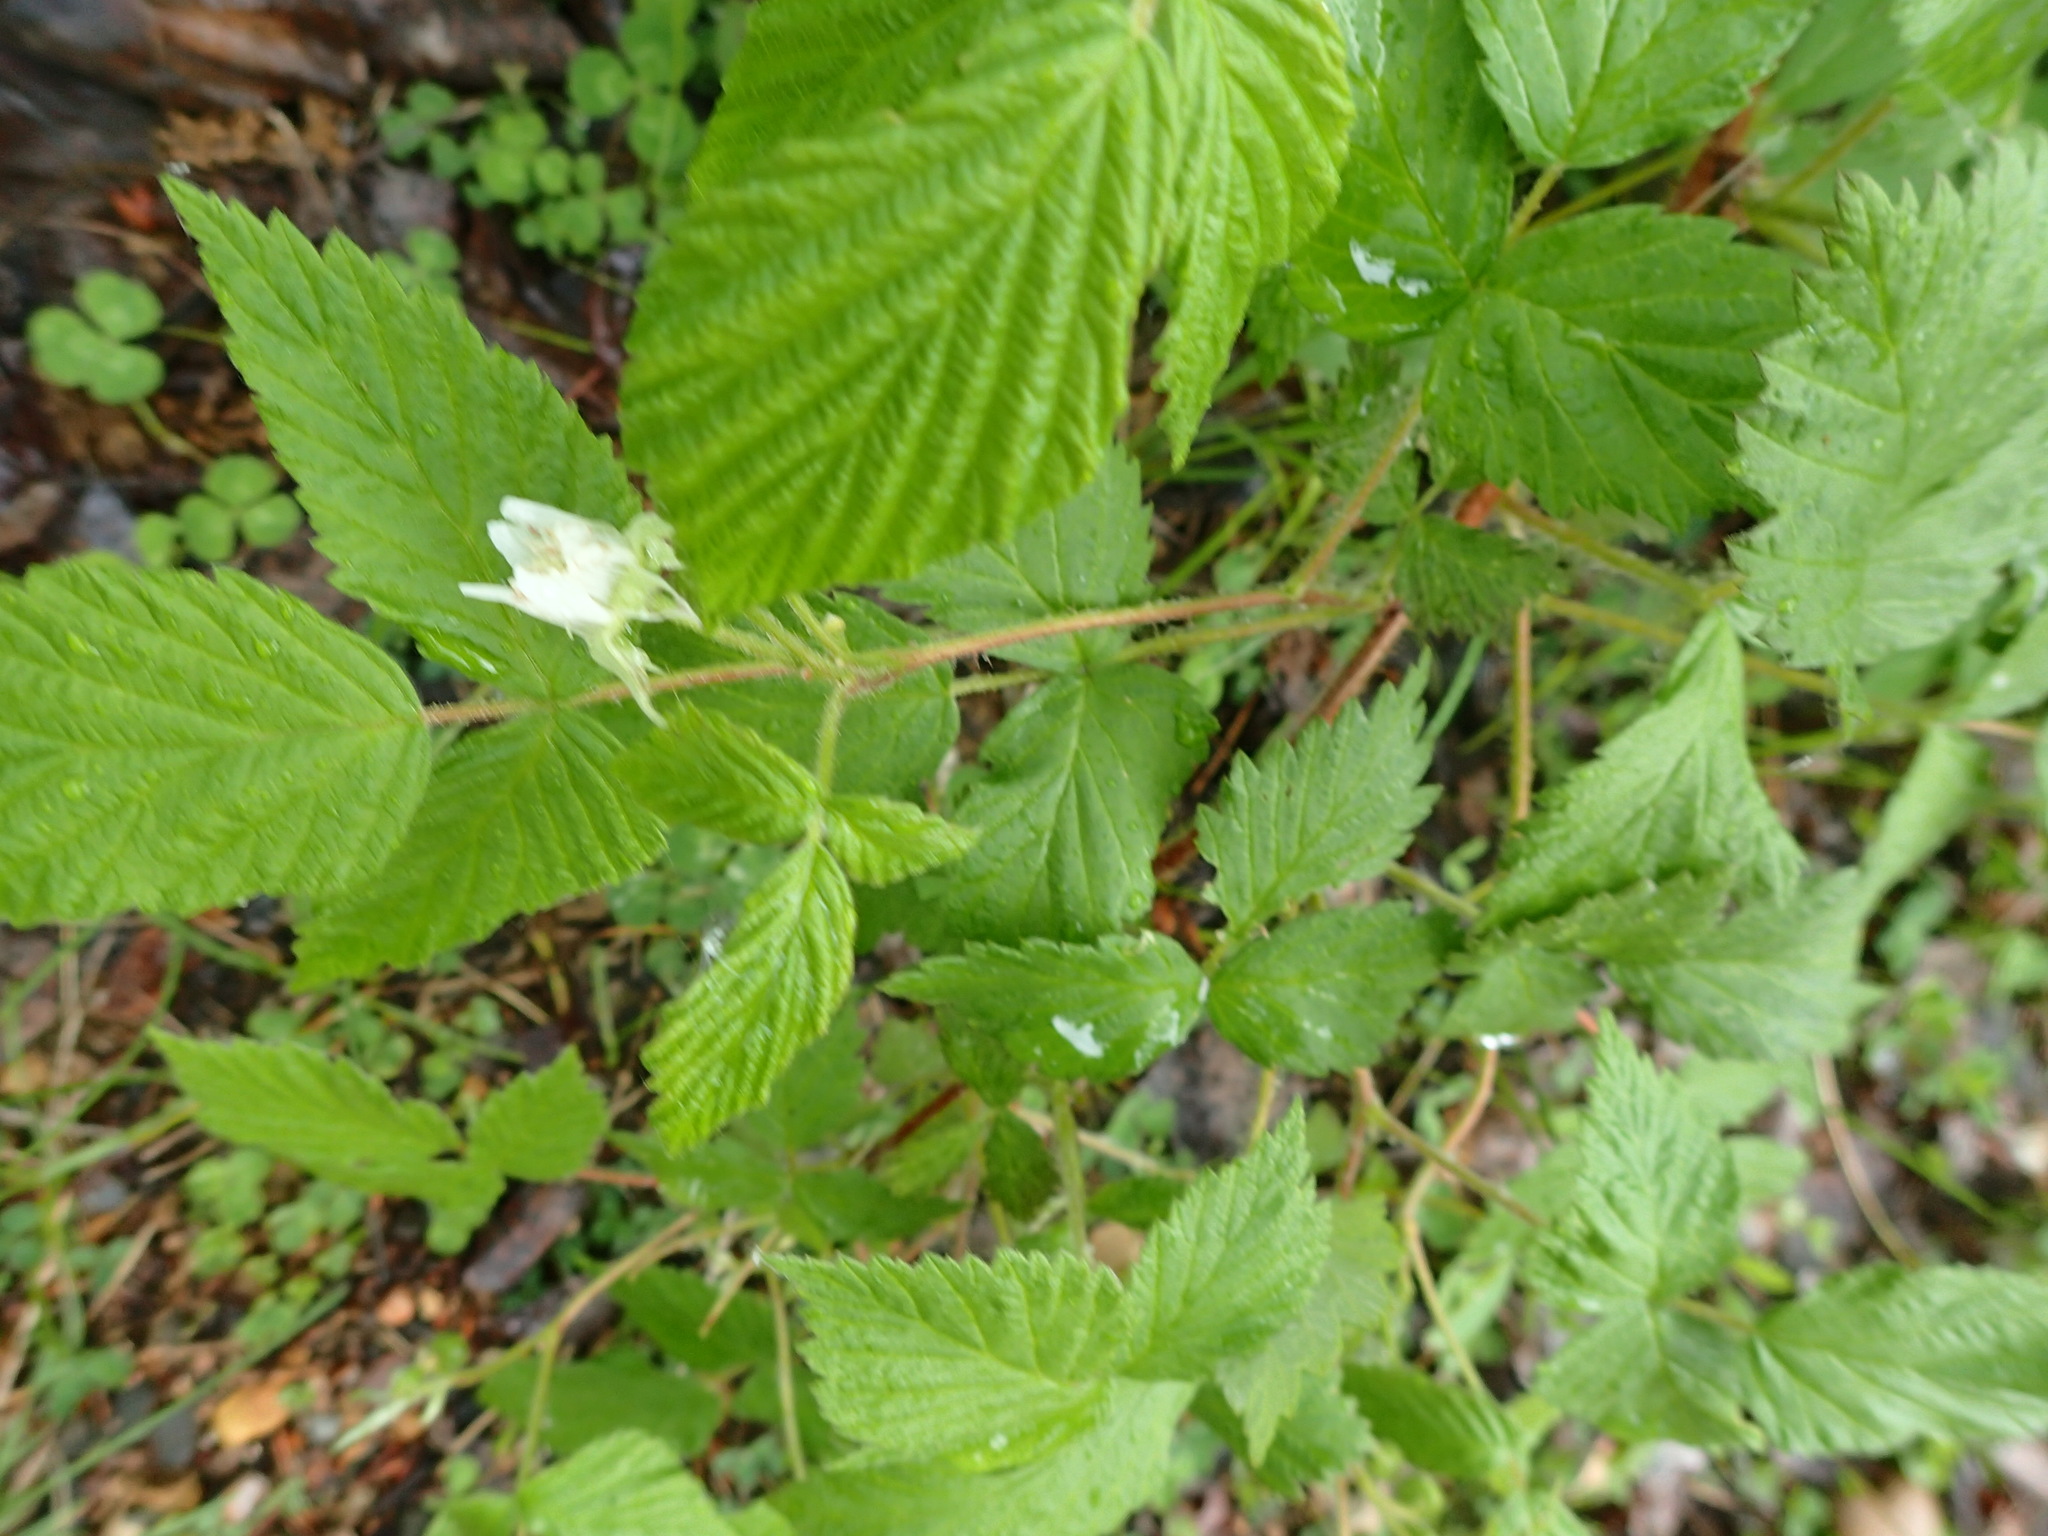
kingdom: Plantae
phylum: Tracheophyta
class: Magnoliopsida
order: Rosales
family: Rosaceae
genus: Rubus
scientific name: Rubus idaeus
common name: Raspberry
